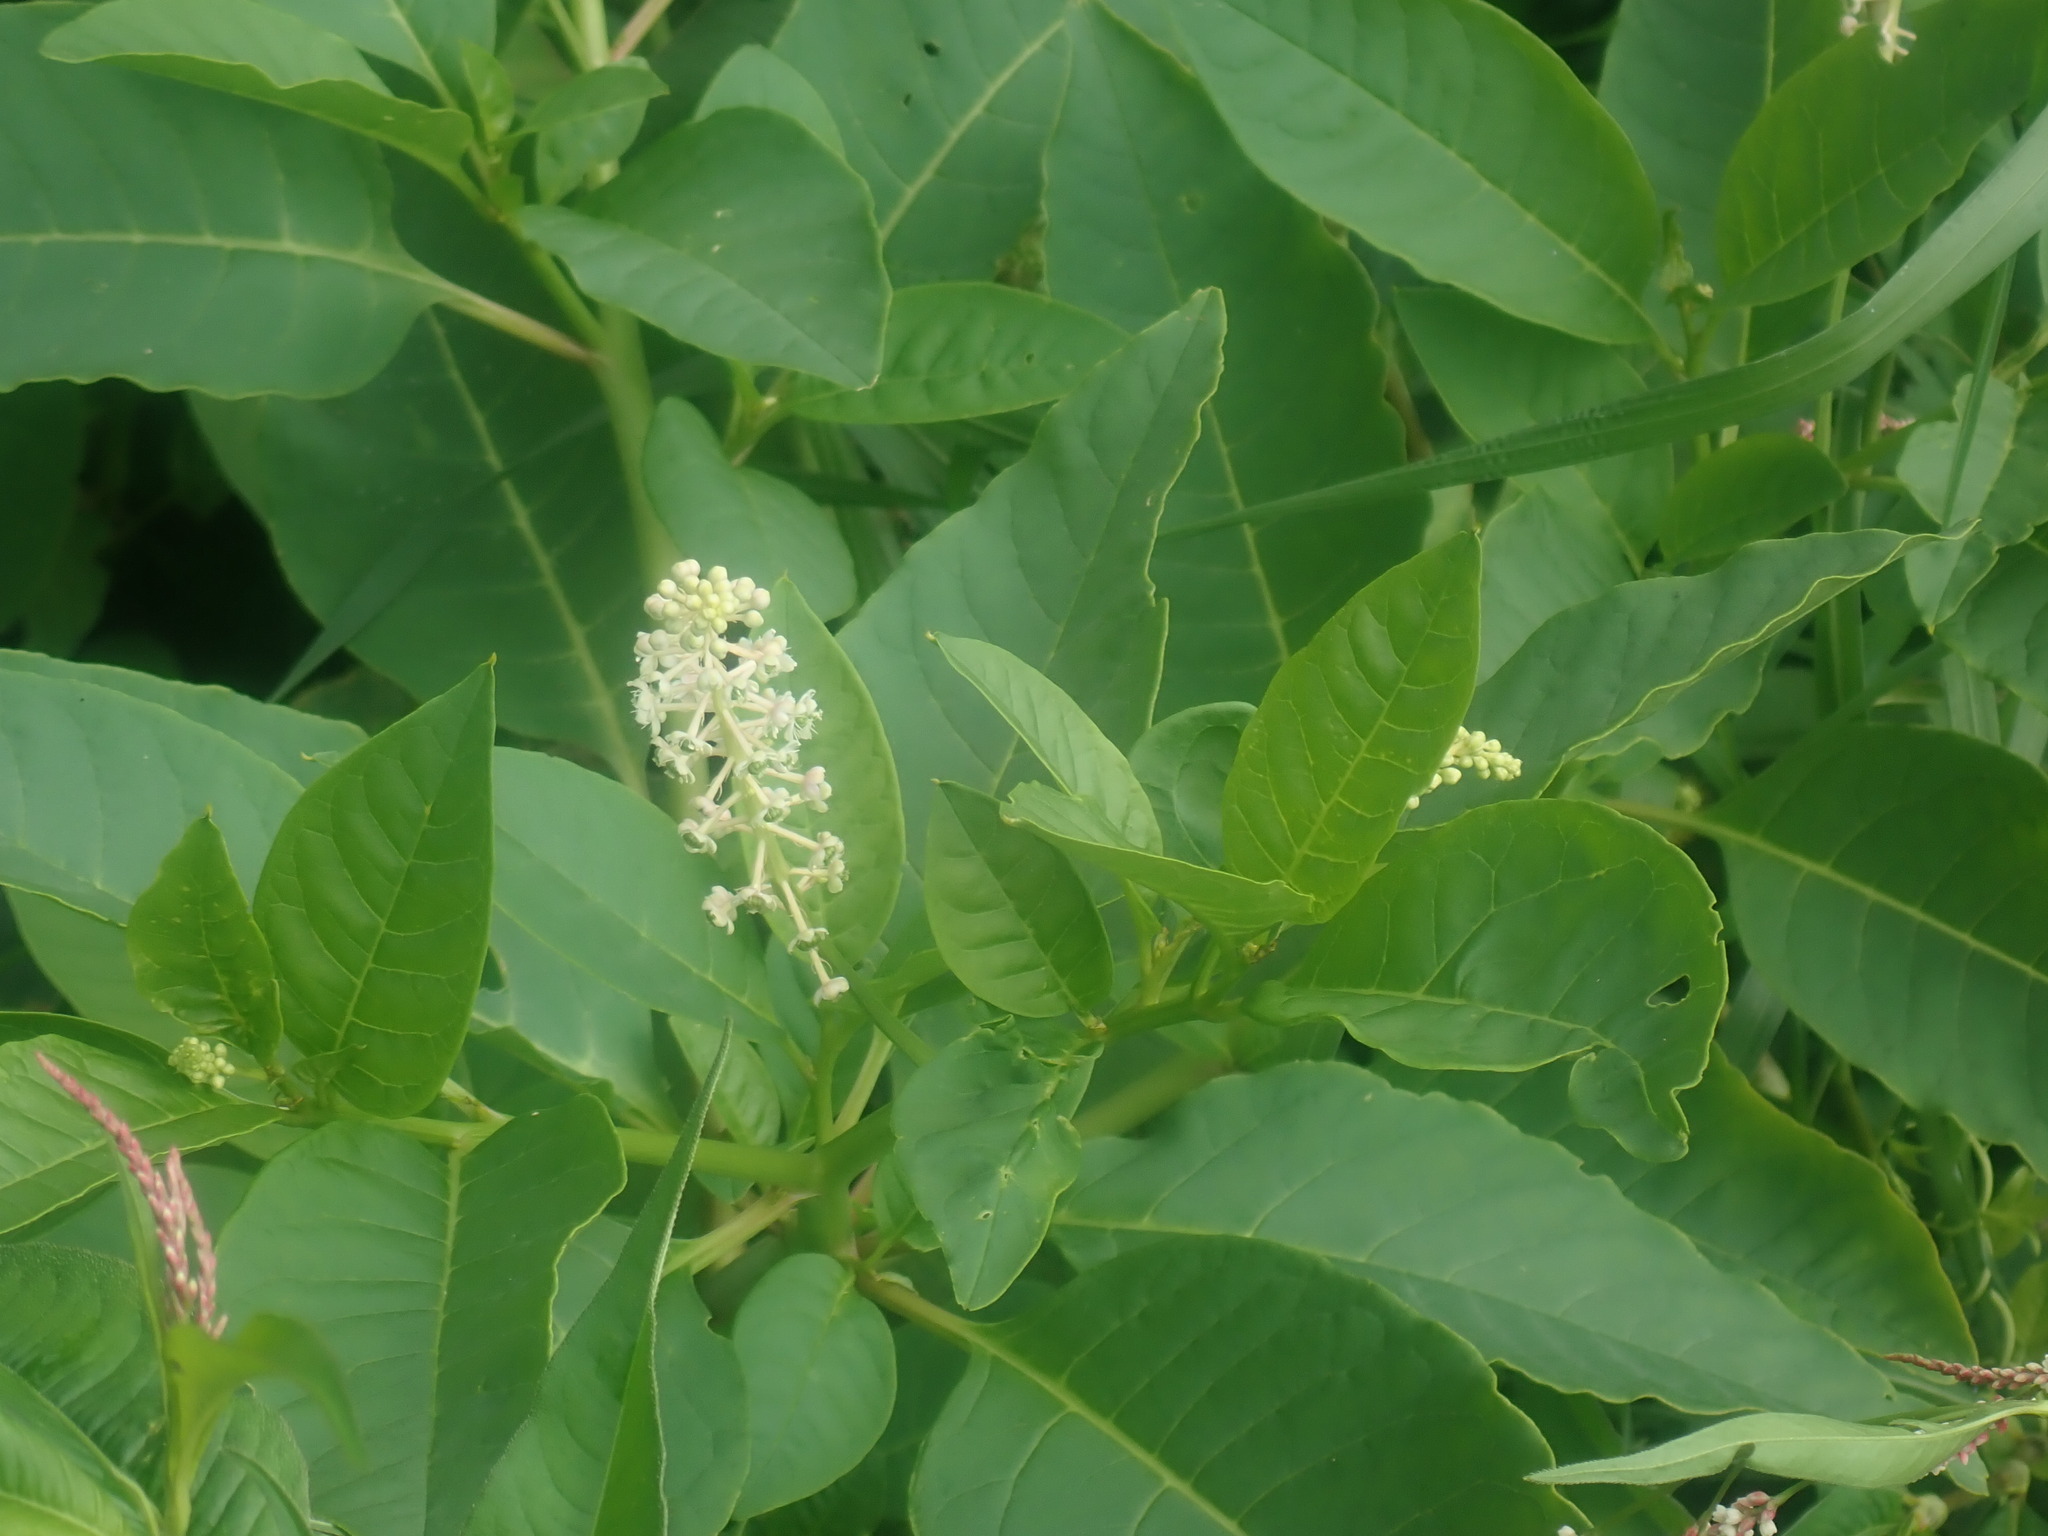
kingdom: Plantae
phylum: Tracheophyta
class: Magnoliopsida
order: Caryophyllales
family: Phytolaccaceae
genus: Phytolacca
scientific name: Phytolacca americana
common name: American pokeweed
